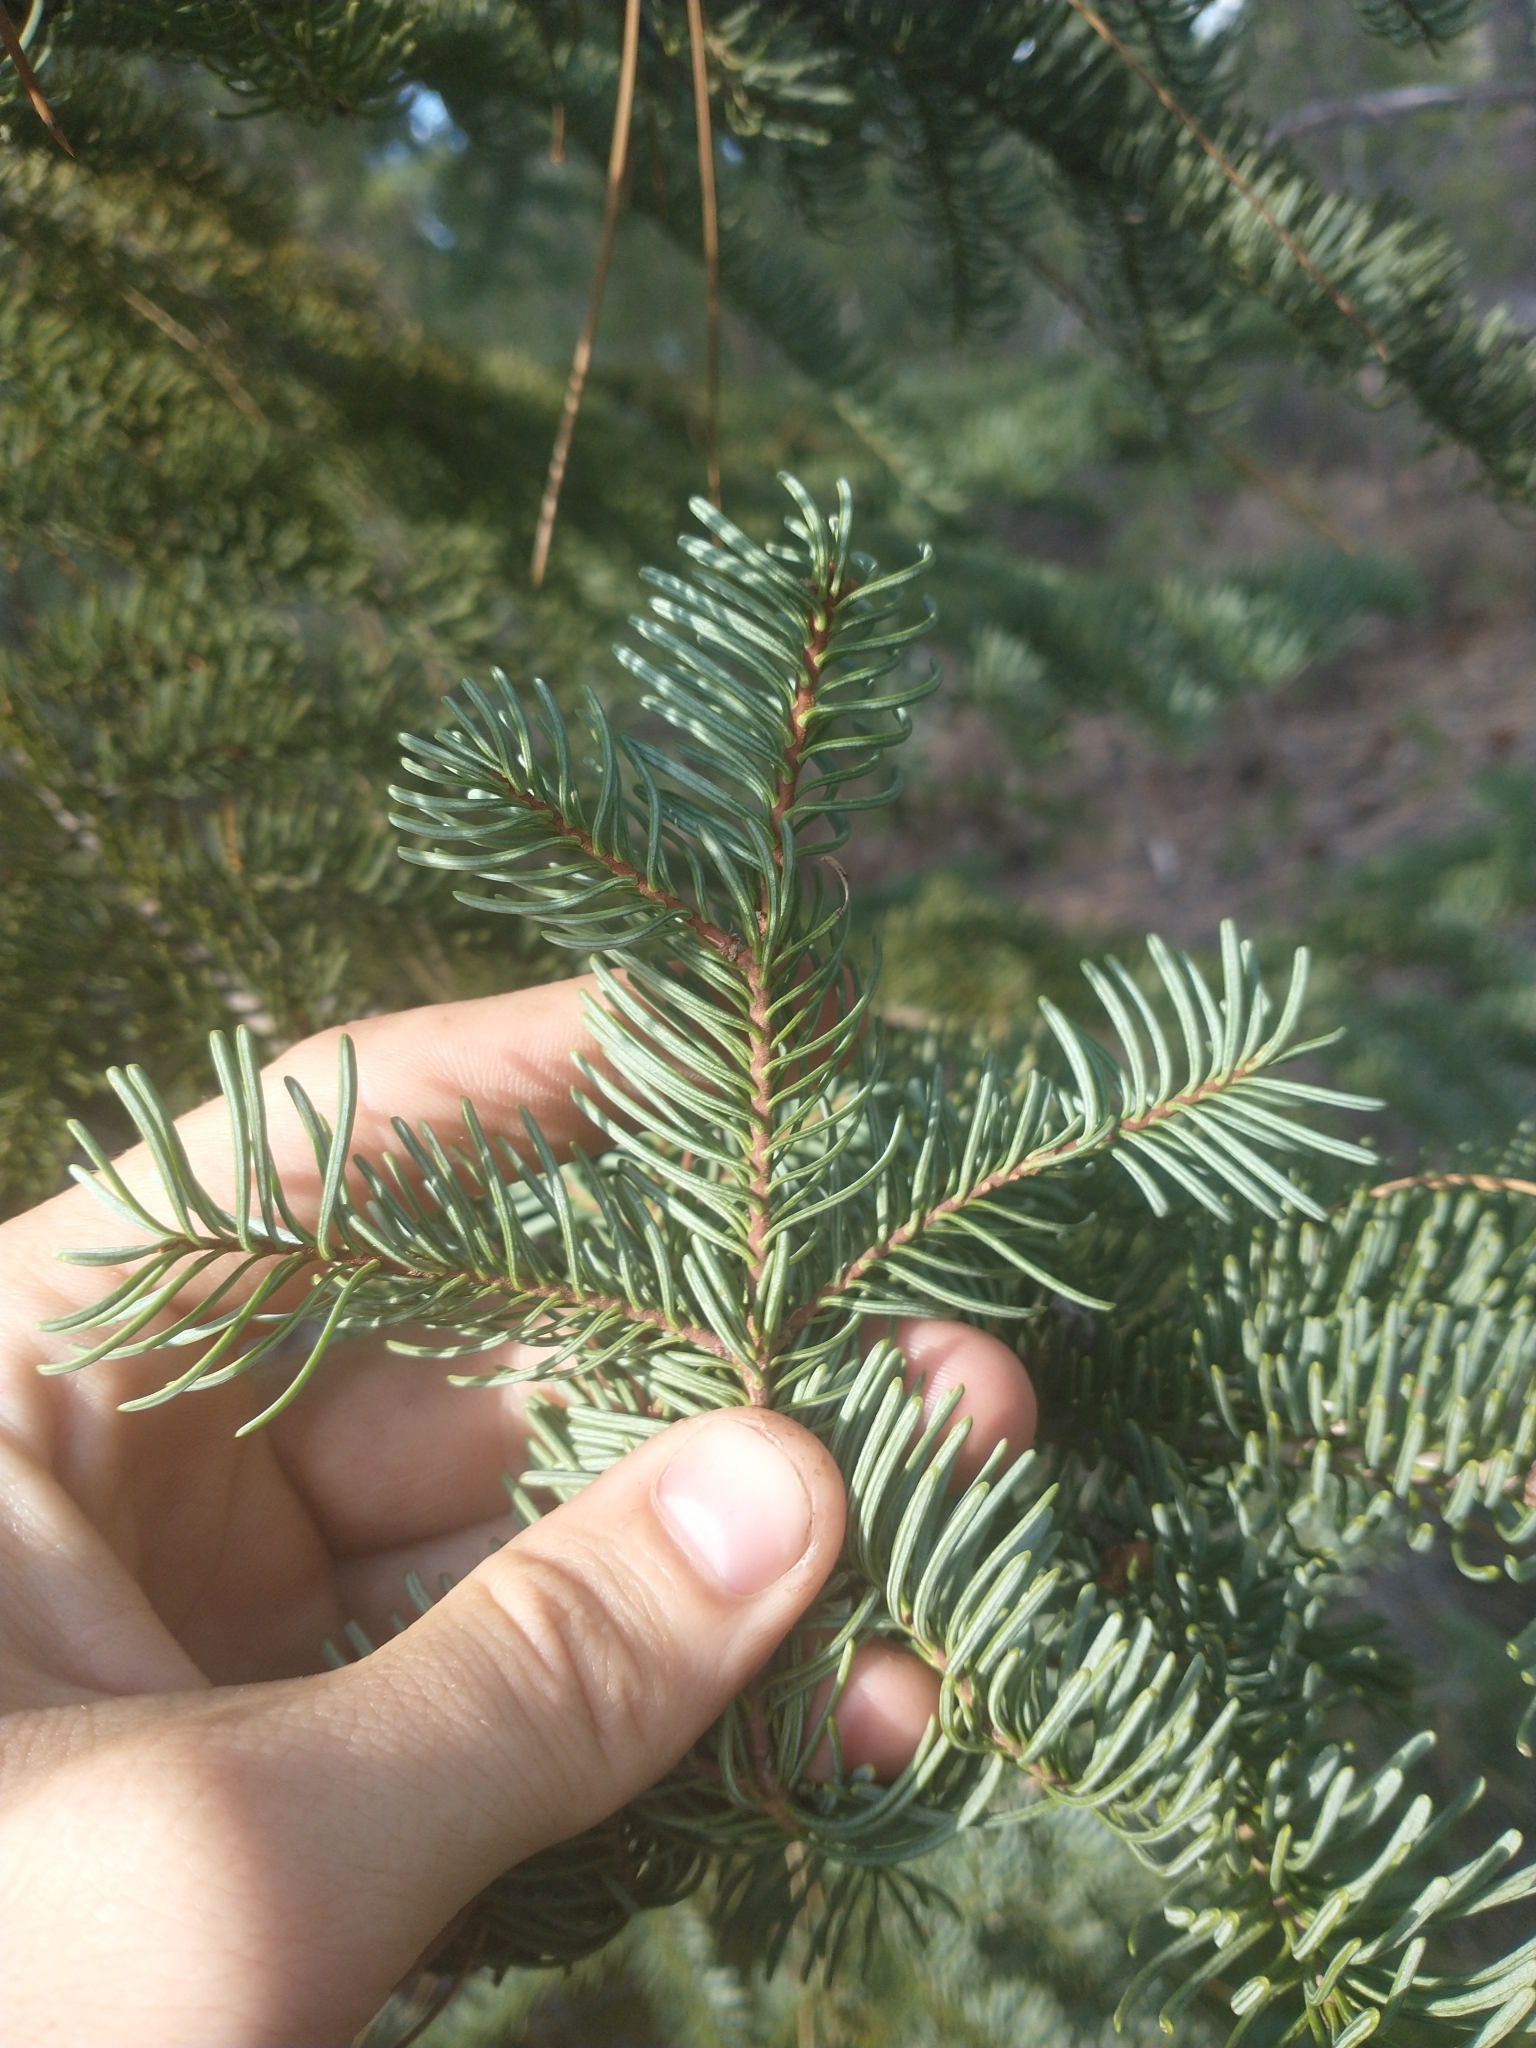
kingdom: Plantae
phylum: Tracheophyta
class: Pinopsida
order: Pinales
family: Pinaceae
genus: Abies
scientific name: Abies magnifica bis
